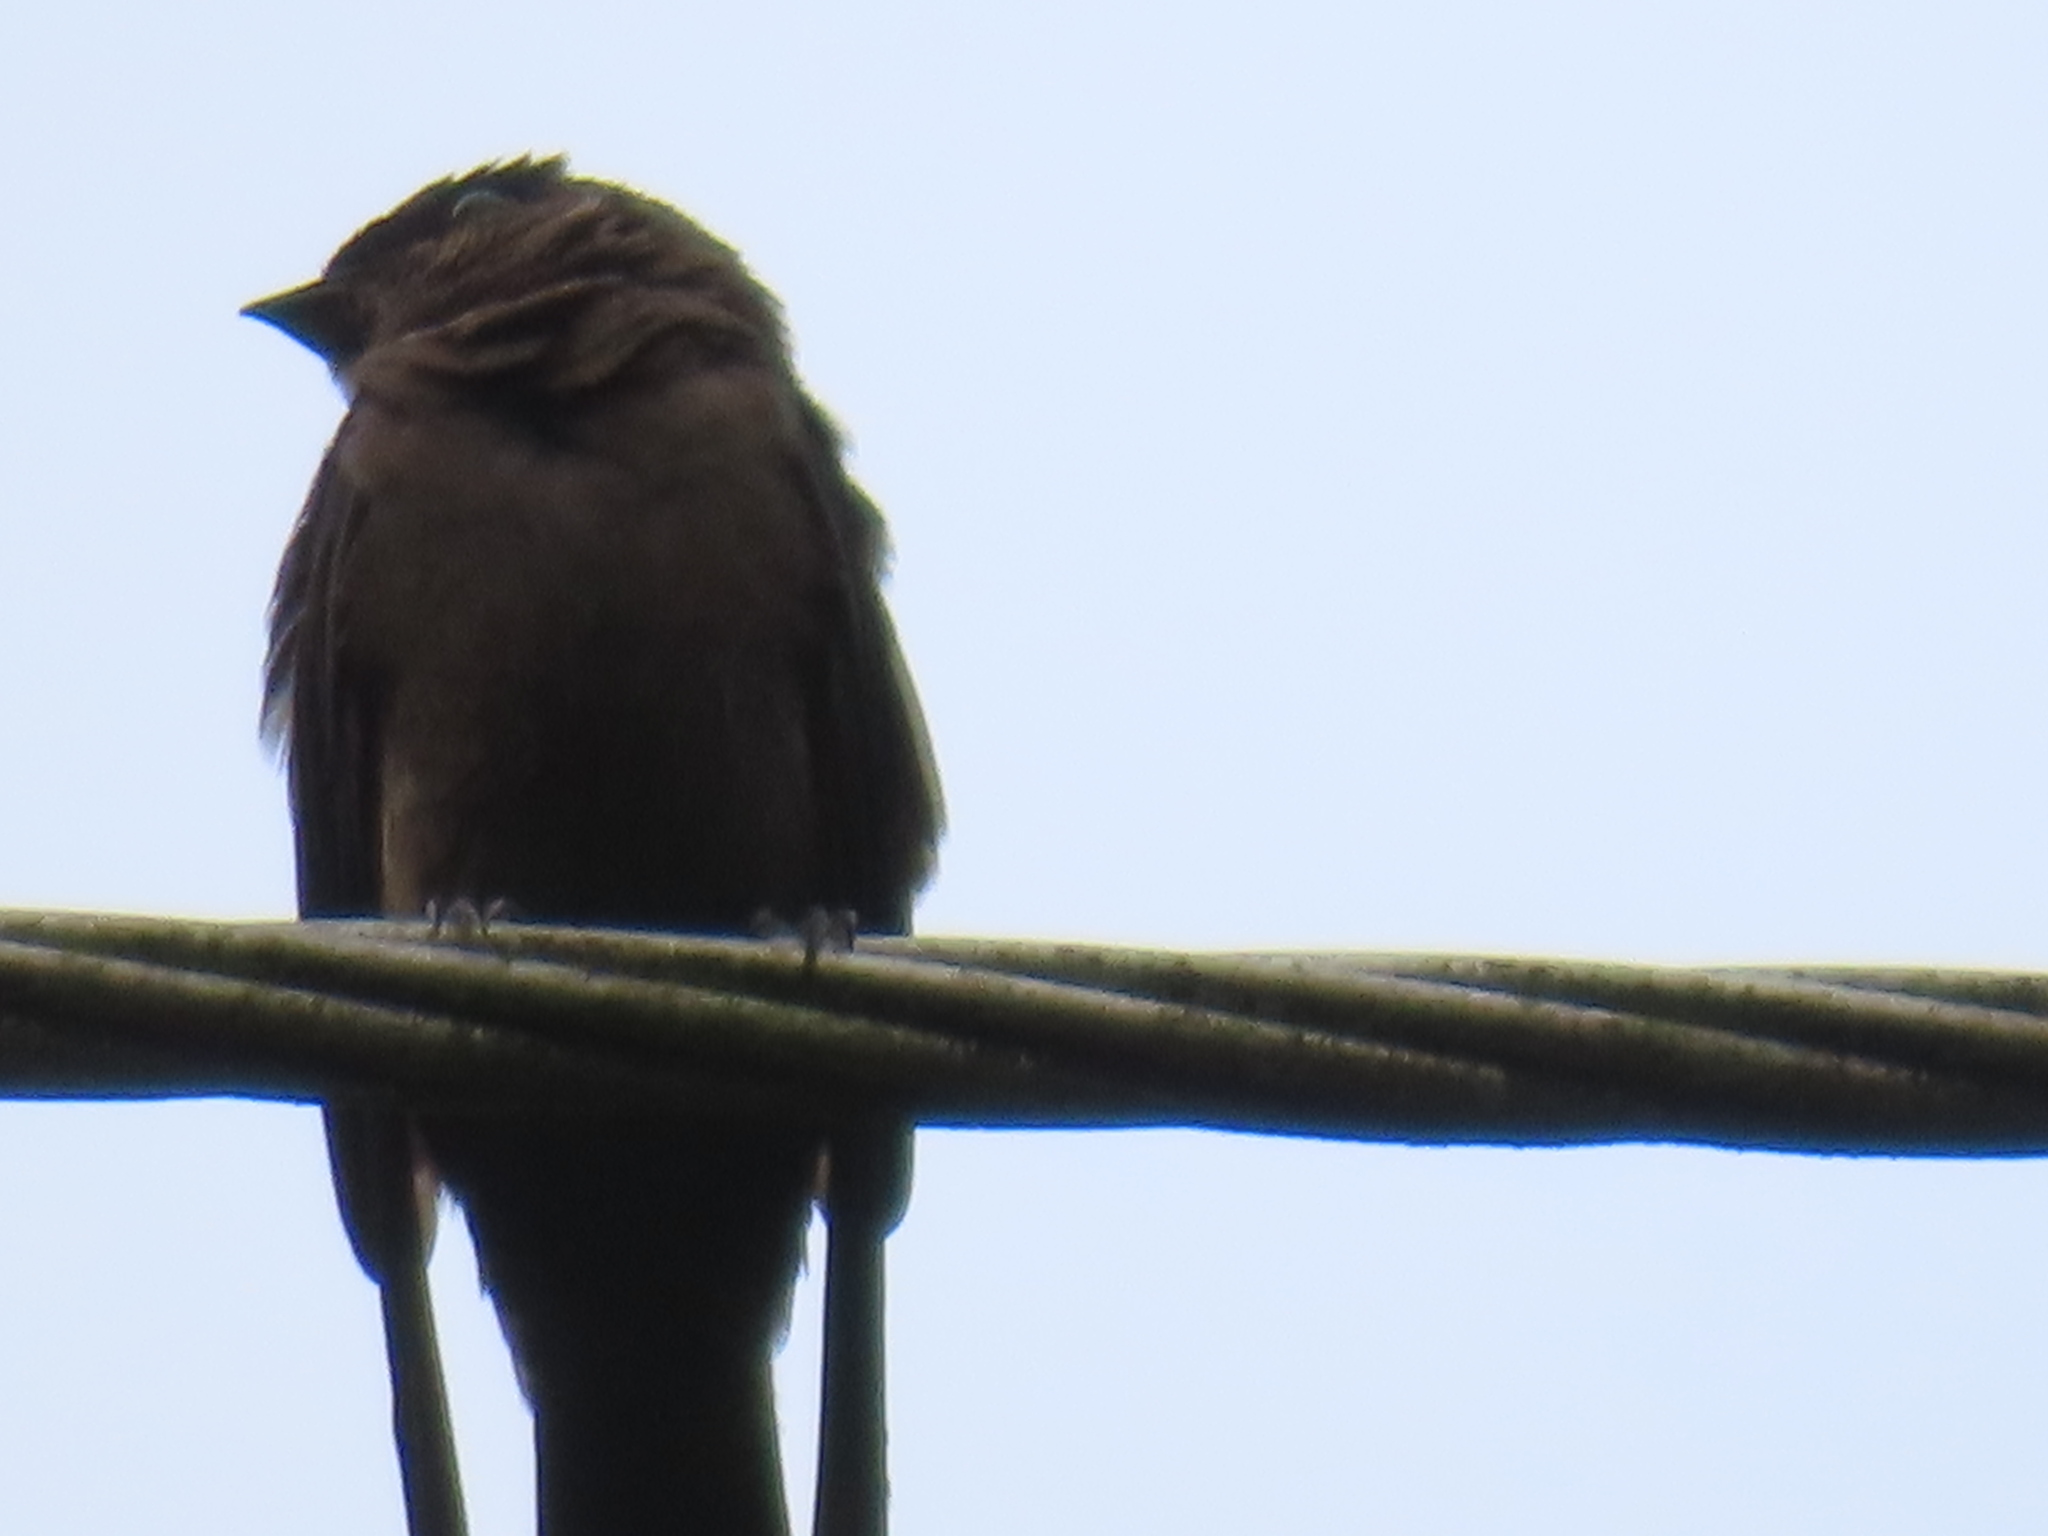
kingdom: Animalia
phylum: Chordata
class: Aves
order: Passeriformes
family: Hirundinidae
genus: Neochelidon
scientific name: Neochelidon tibialis
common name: White-thighed swallow
